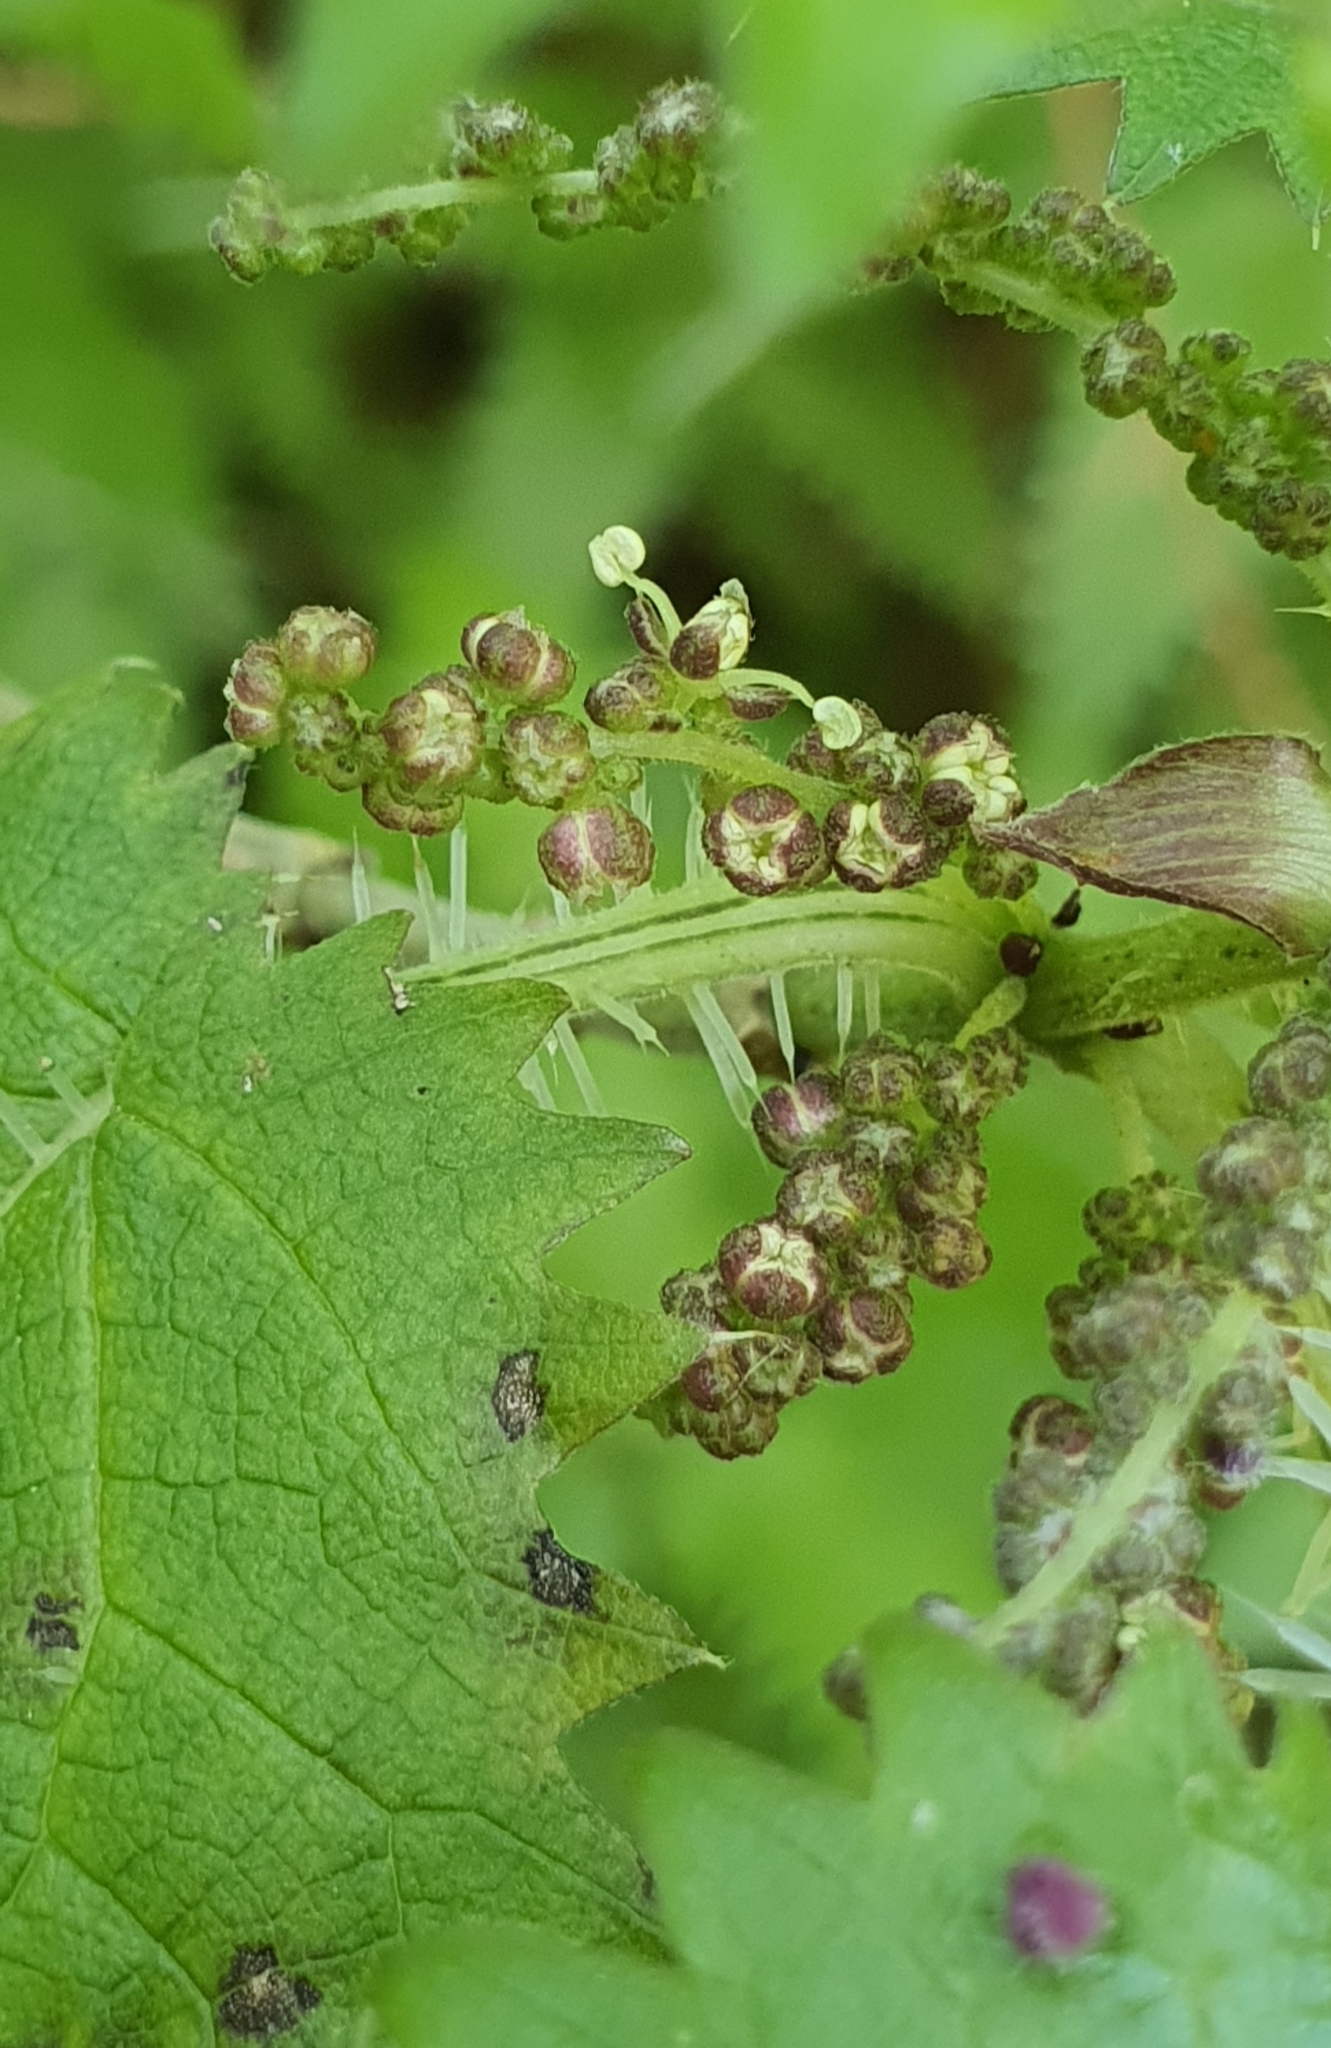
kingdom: Plantae
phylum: Tracheophyta
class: Magnoliopsida
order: Rosales
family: Urticaceae
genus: Urtica
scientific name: Urtica ferox
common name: Tree nettle
